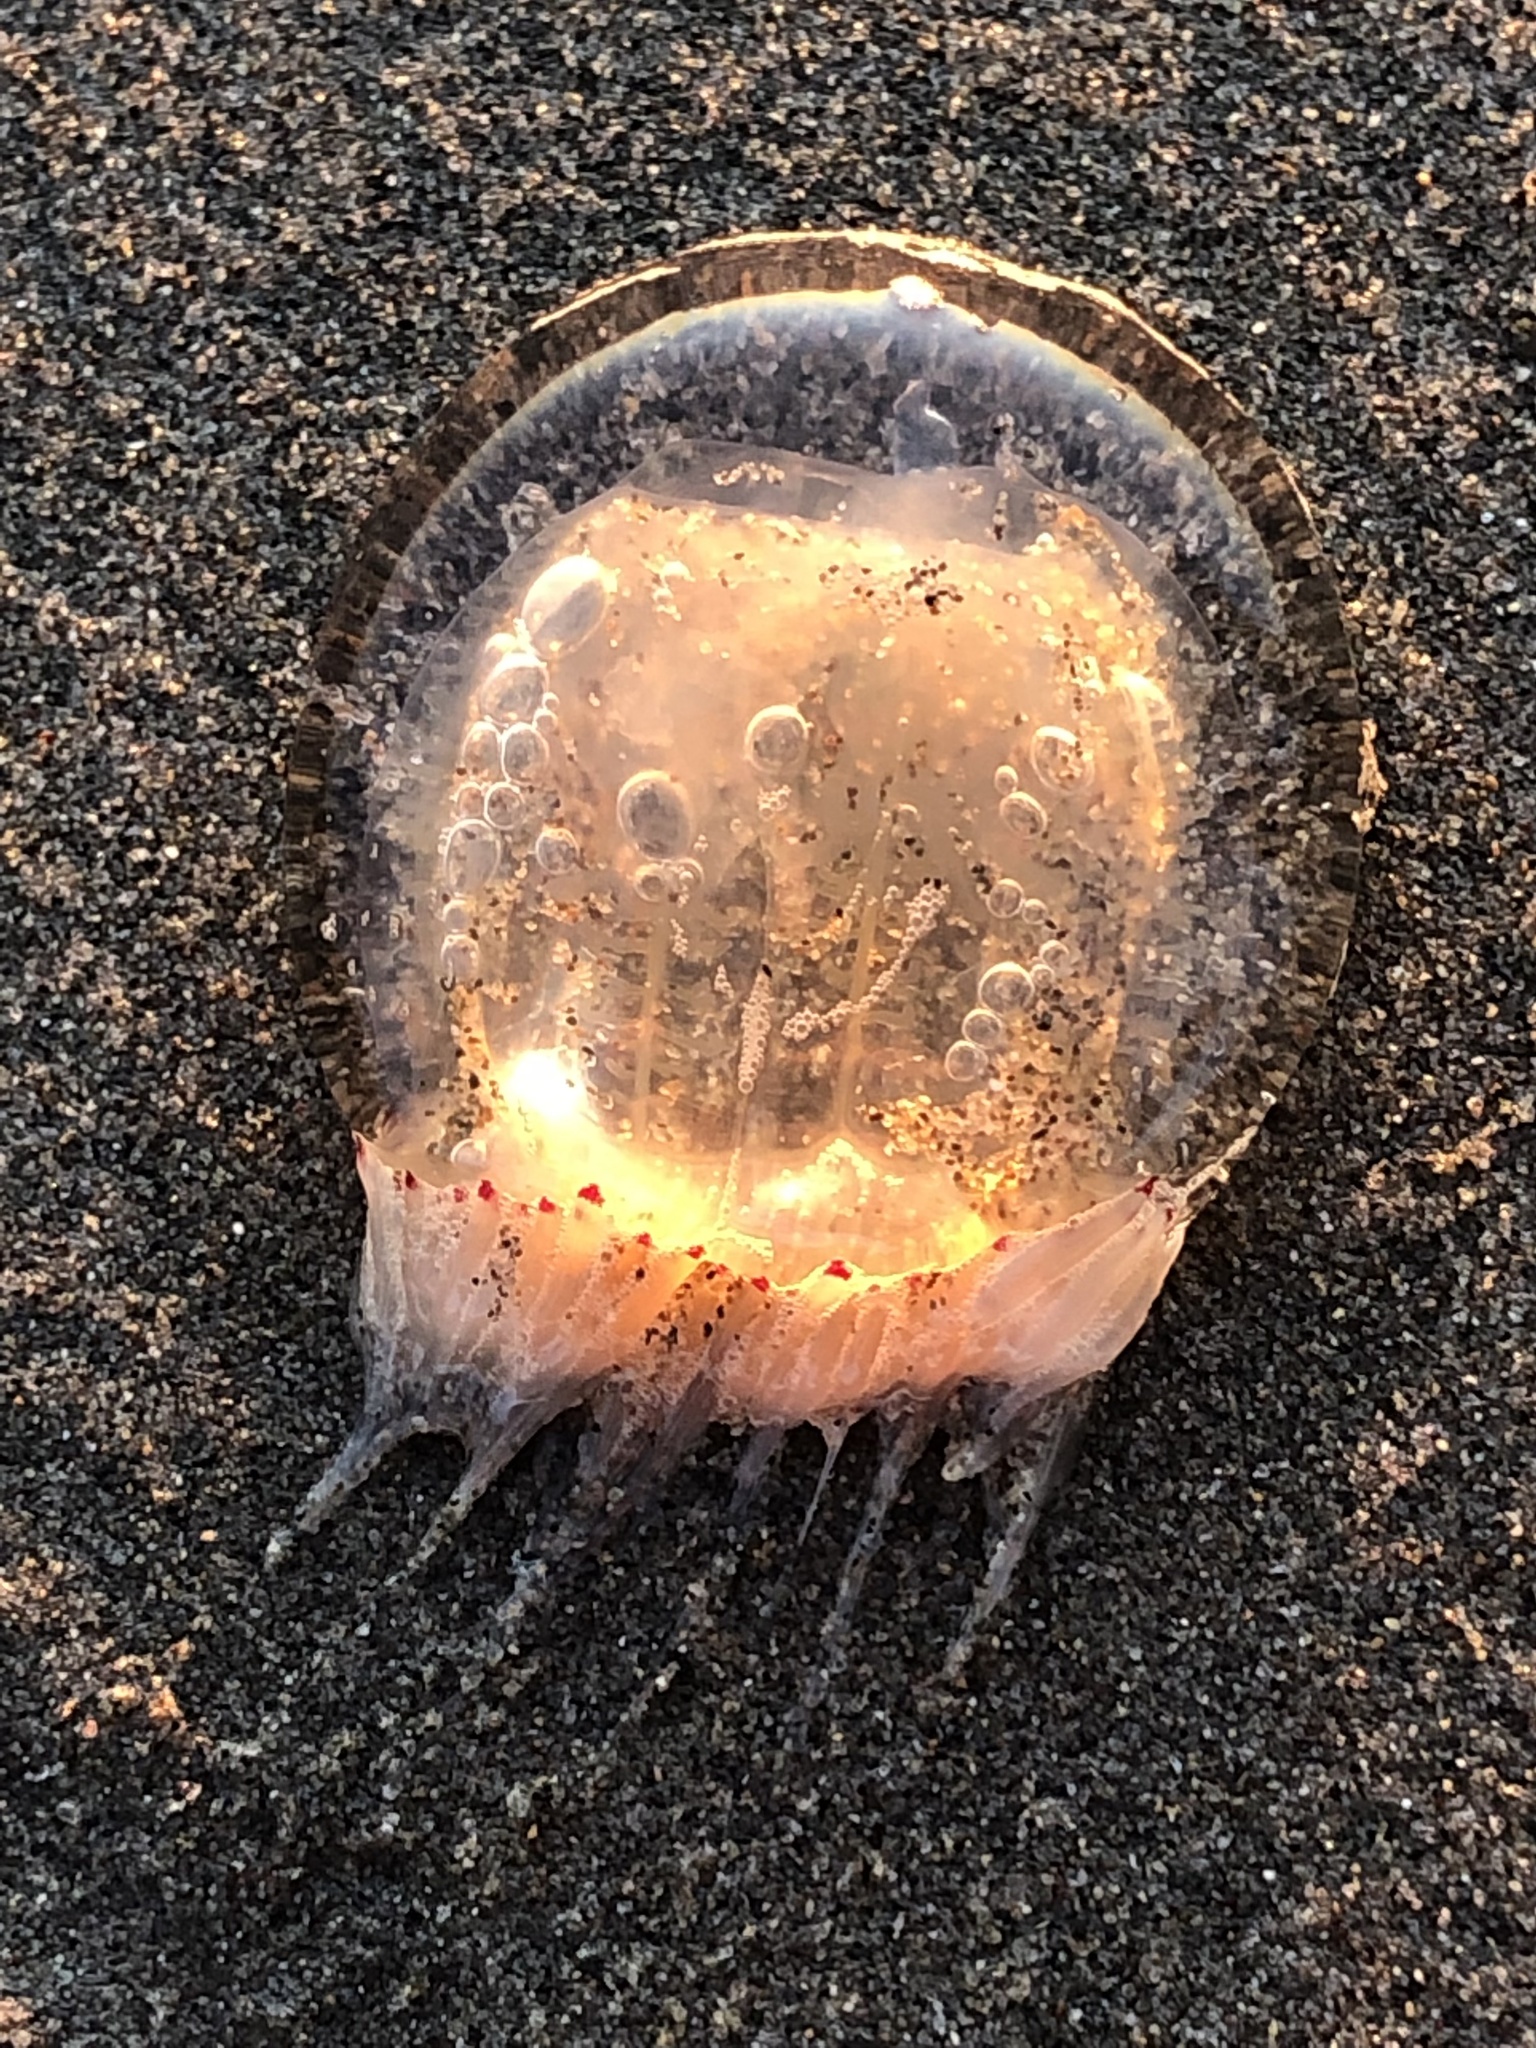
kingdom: Animalia
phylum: Cnidaria
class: Hydrozoa
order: Anthoathecata
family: Corynidae
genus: Polyorchis
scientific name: Polyorchis penicillatus
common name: Penicillate jellyfish
